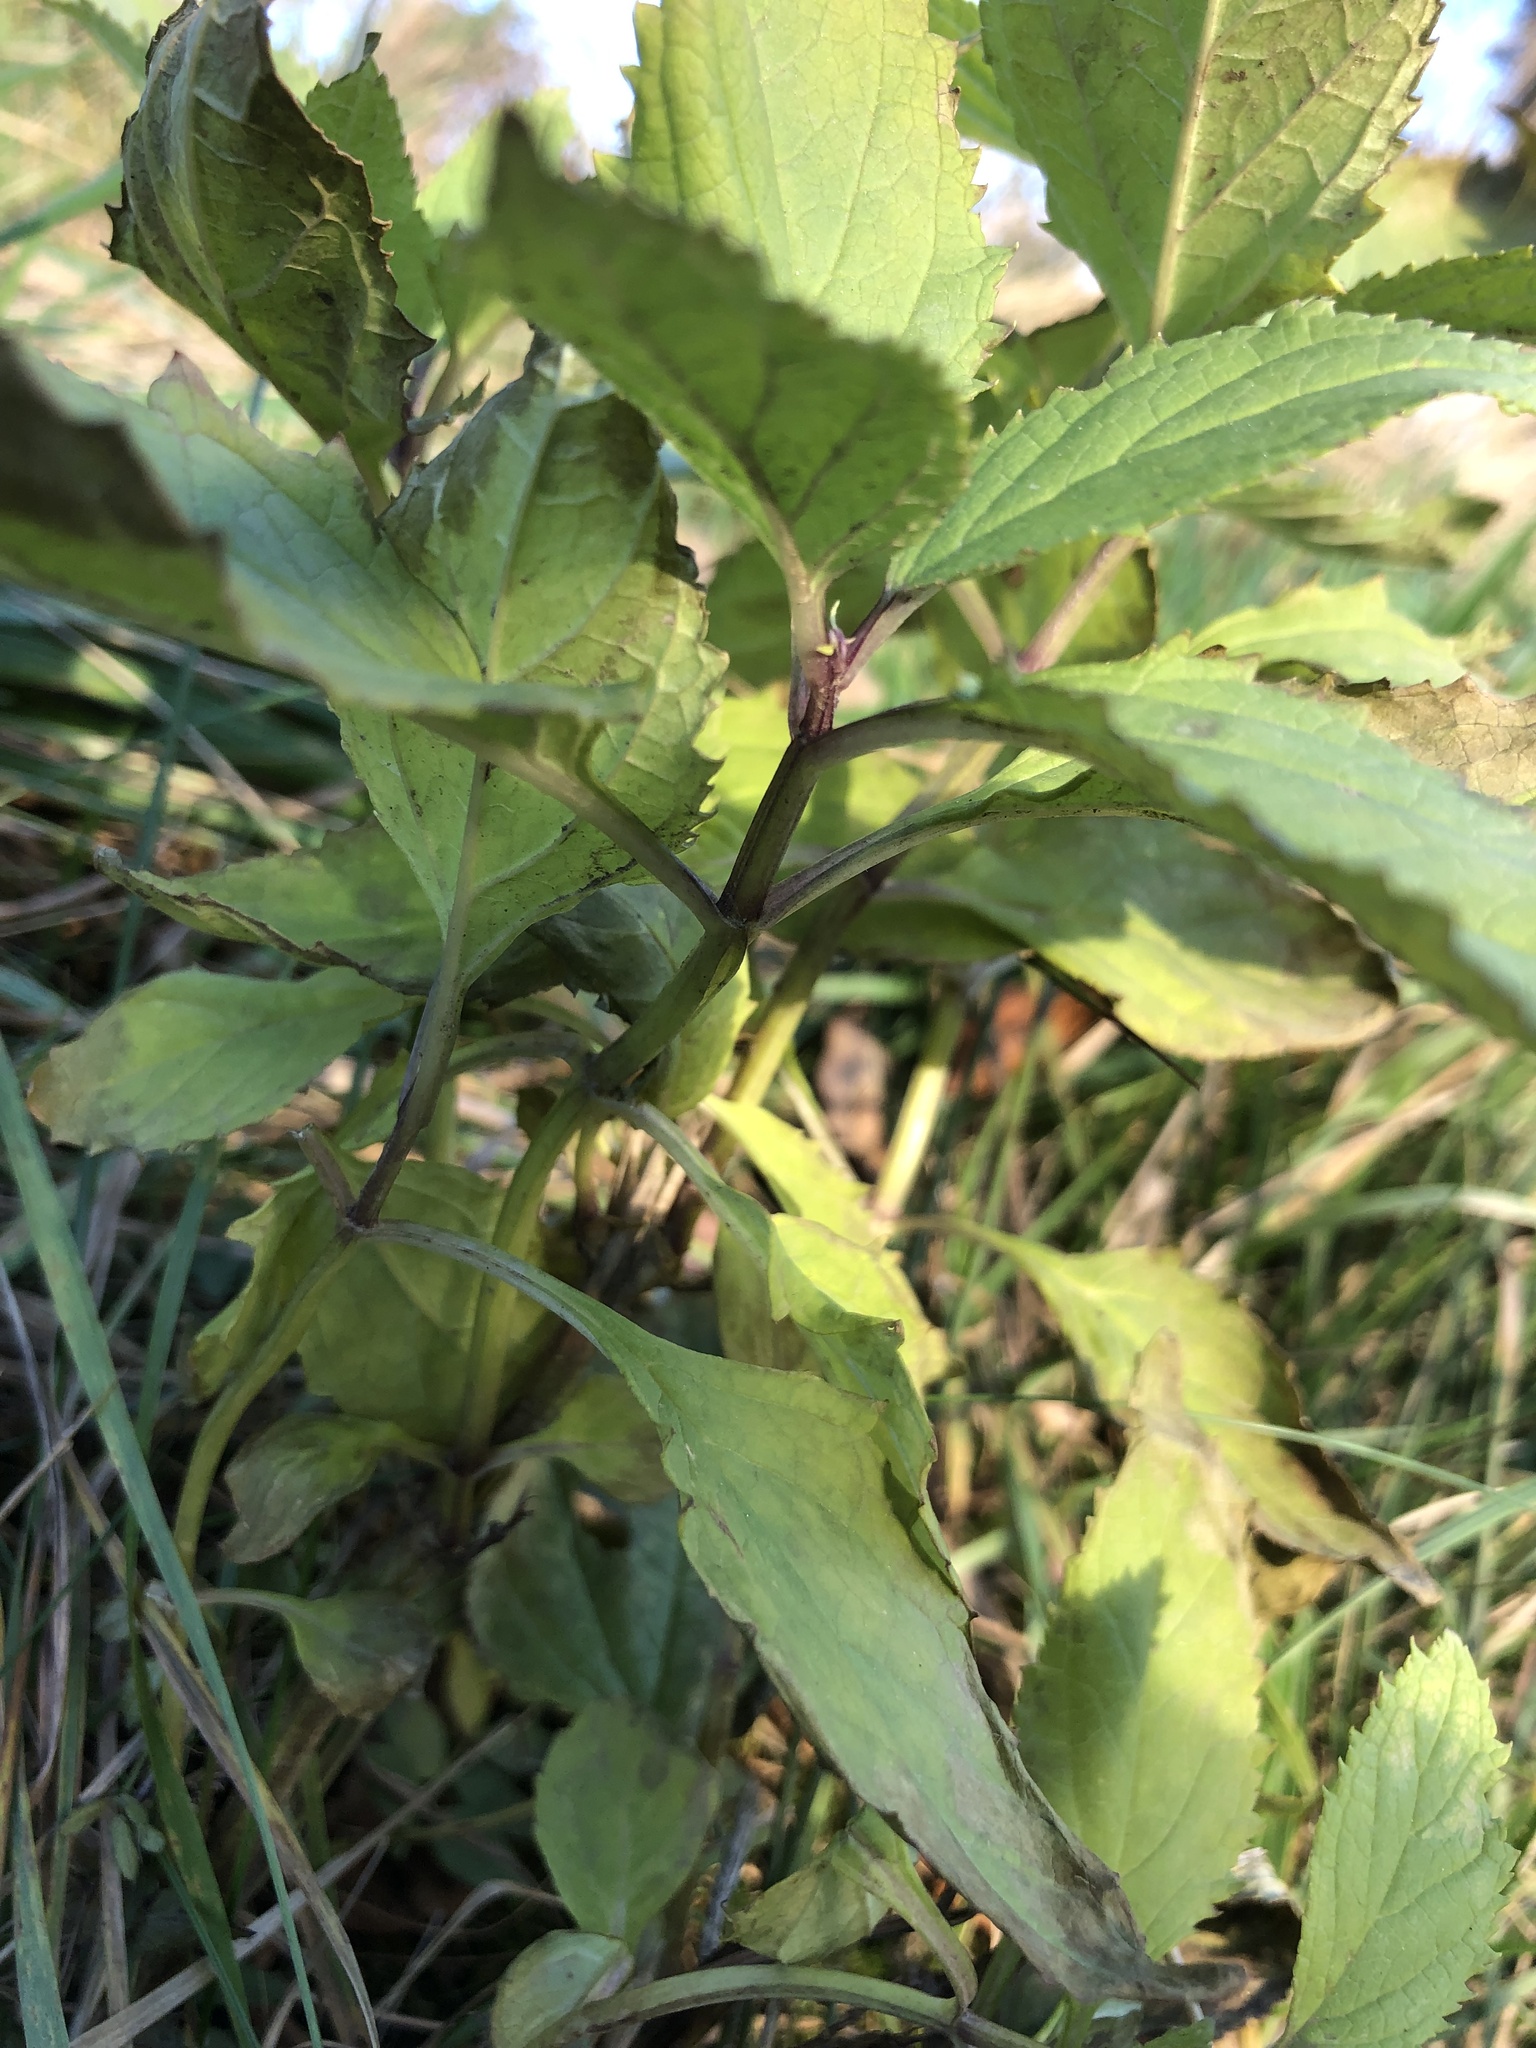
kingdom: Plantae
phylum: Tracheophyta
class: Magnoliopsida
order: Lamiales
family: Scrophulariaceae
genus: Scrophularia
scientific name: Scrophularia nodosa
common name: Common figwort
